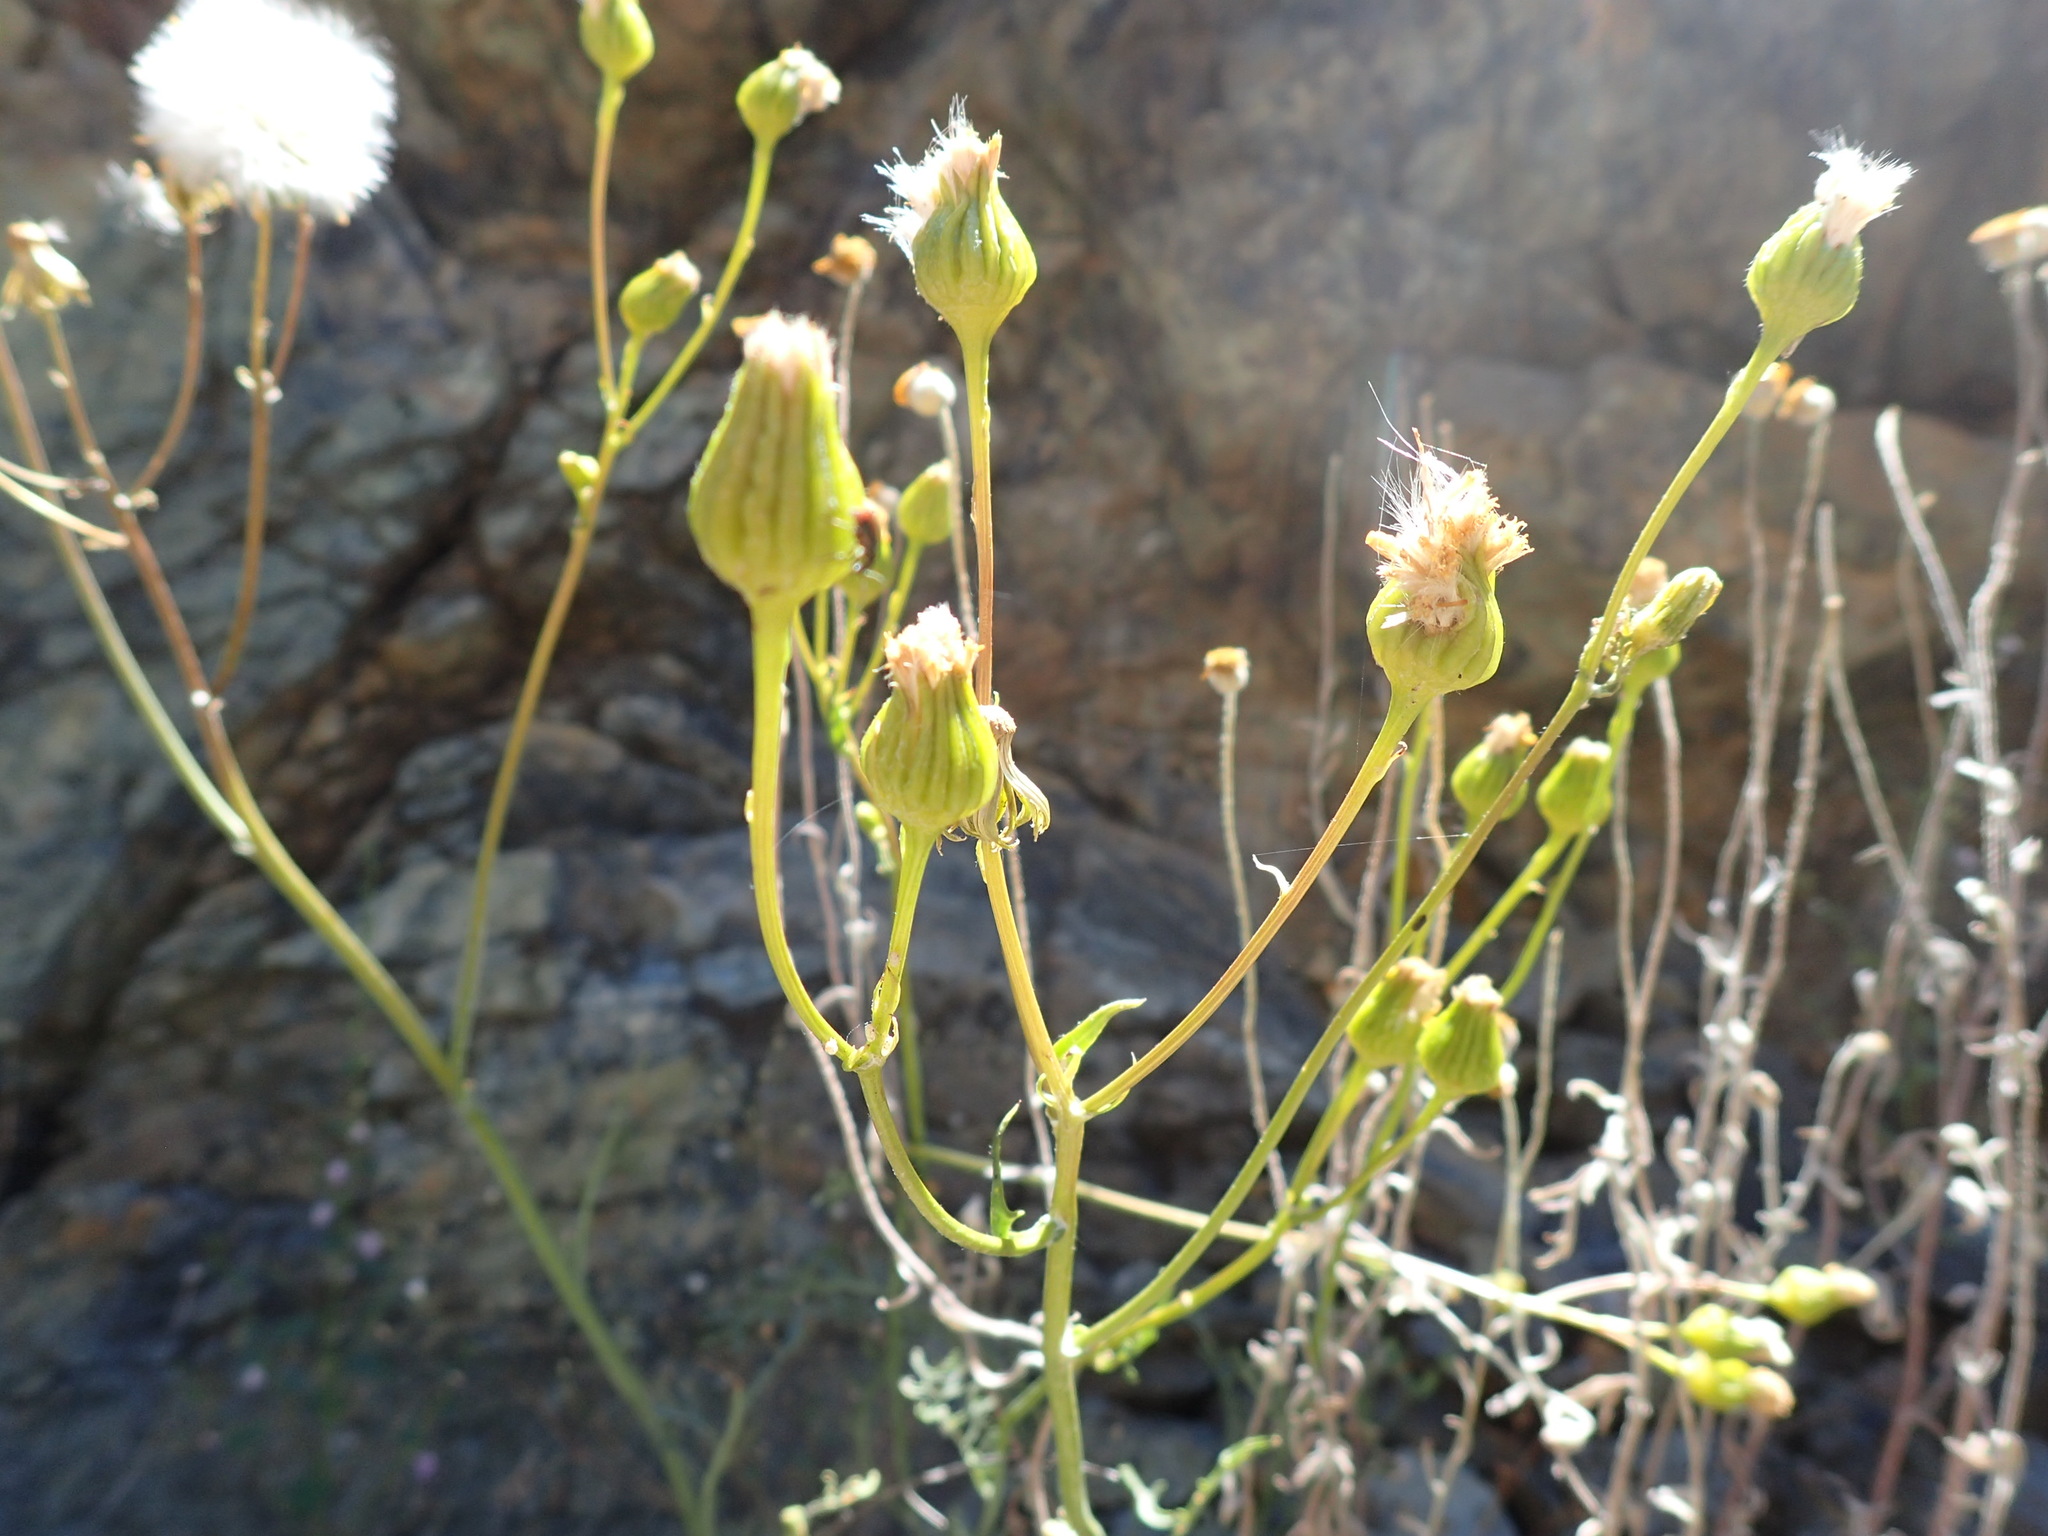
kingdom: Plantae
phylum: Tracheophyta
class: Magnoliopsida
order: Asterales
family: Asteraceae
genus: Packera
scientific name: Packera eurycephala
